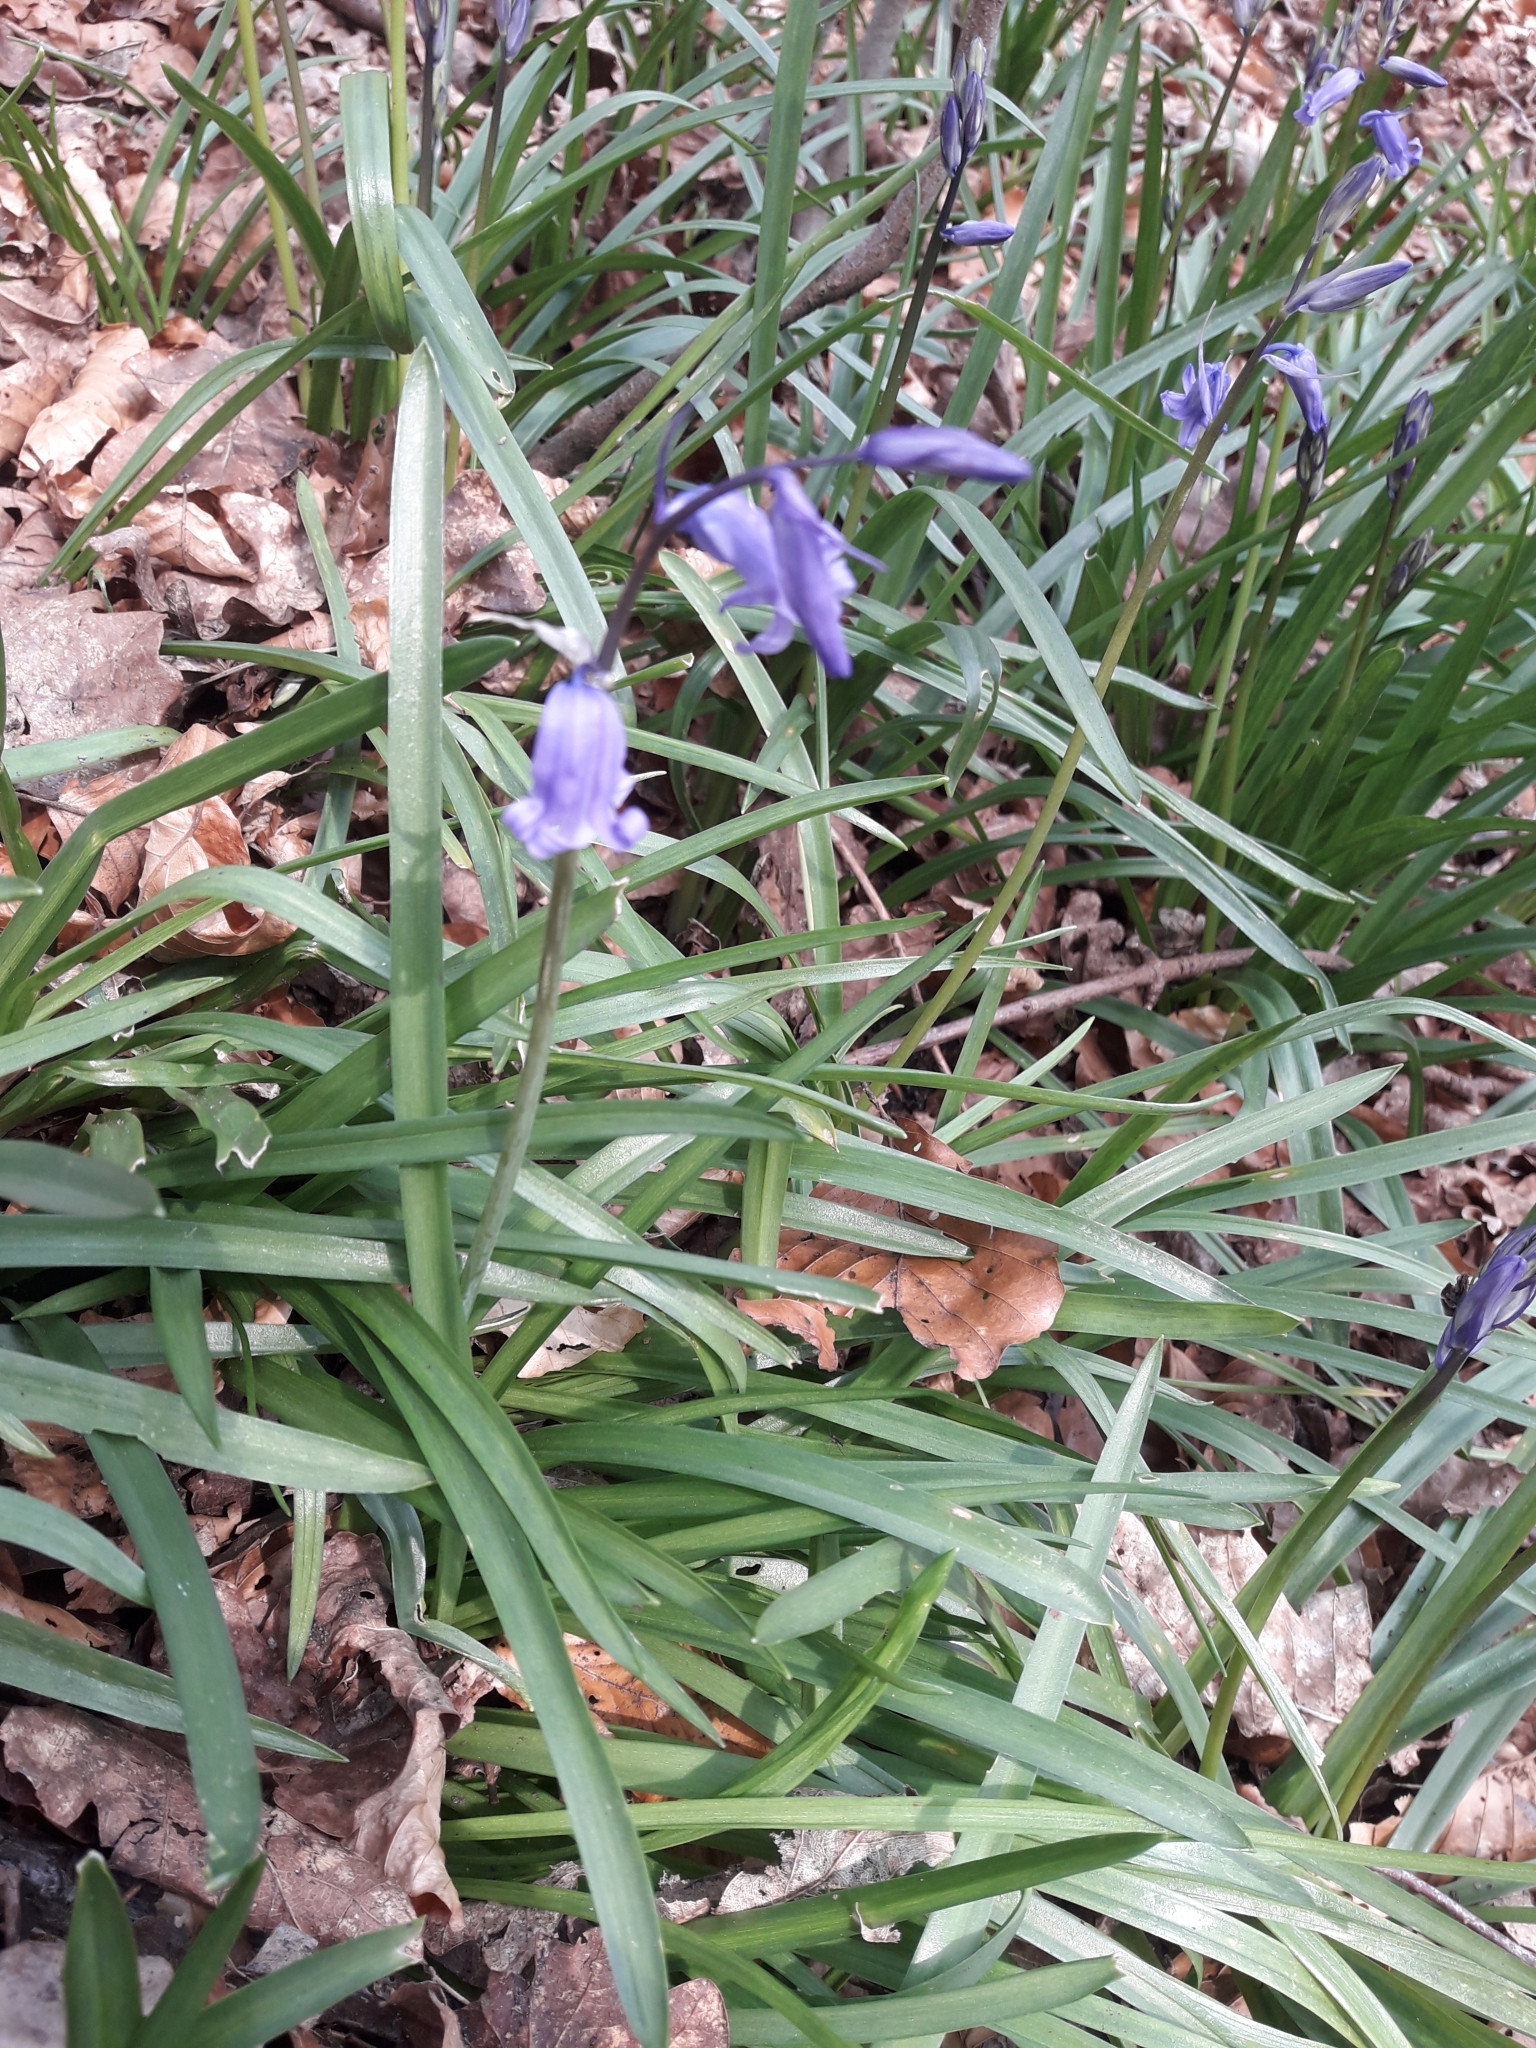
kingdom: Plantae
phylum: Tracheophyta
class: Liliopsida
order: Asparagales
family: Asparagaceae
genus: Hyacinthoides
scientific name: Hyacinthoides non-scripta
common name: Bluebell
